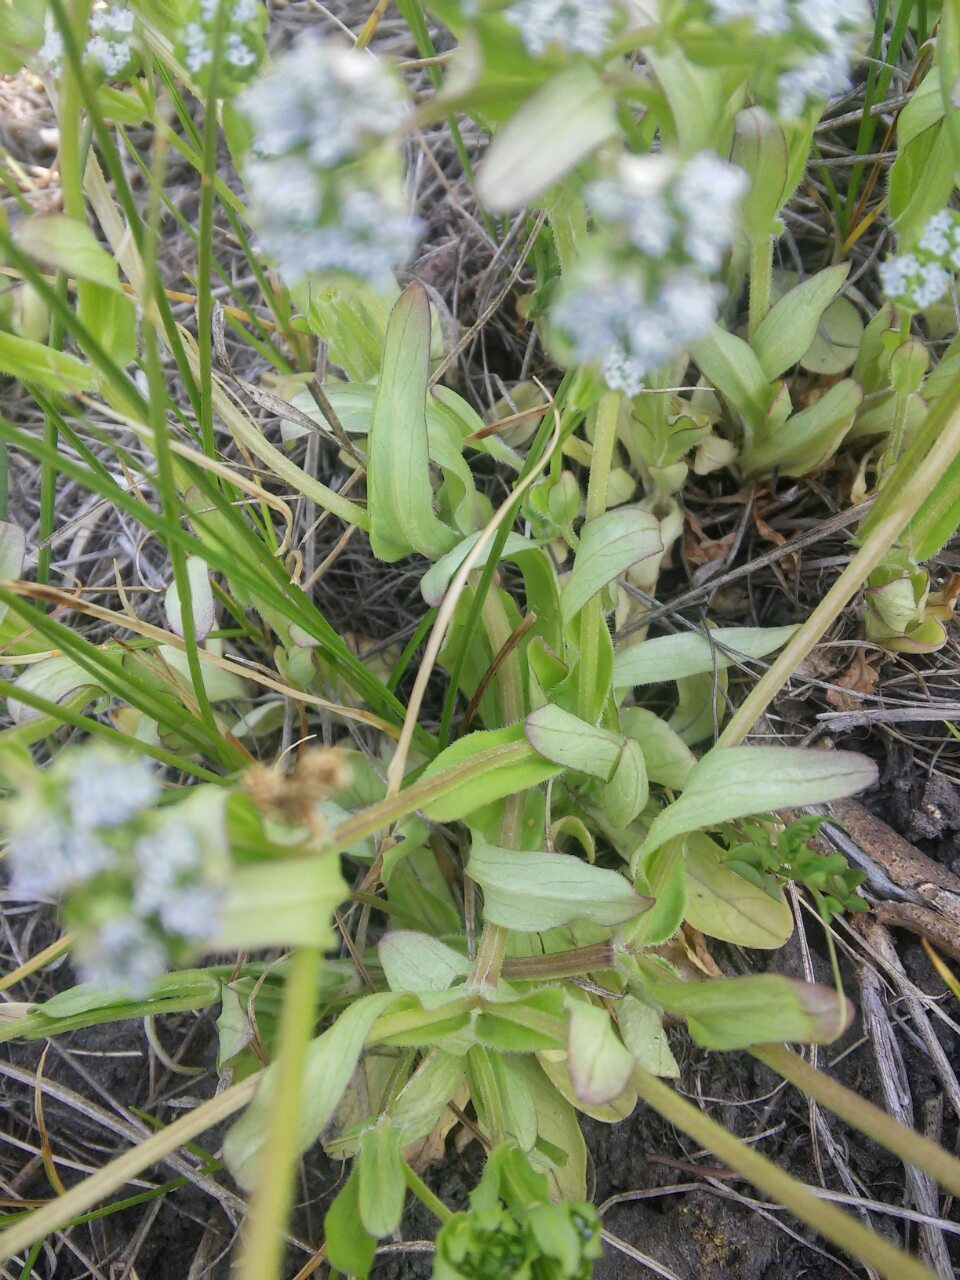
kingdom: Plantae
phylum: Tracheophyta
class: Magnoliopsida
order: Dipsacales
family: Caprifoliaceae
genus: Valerianella
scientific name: Valerianella locusta
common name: Common cornsalad
